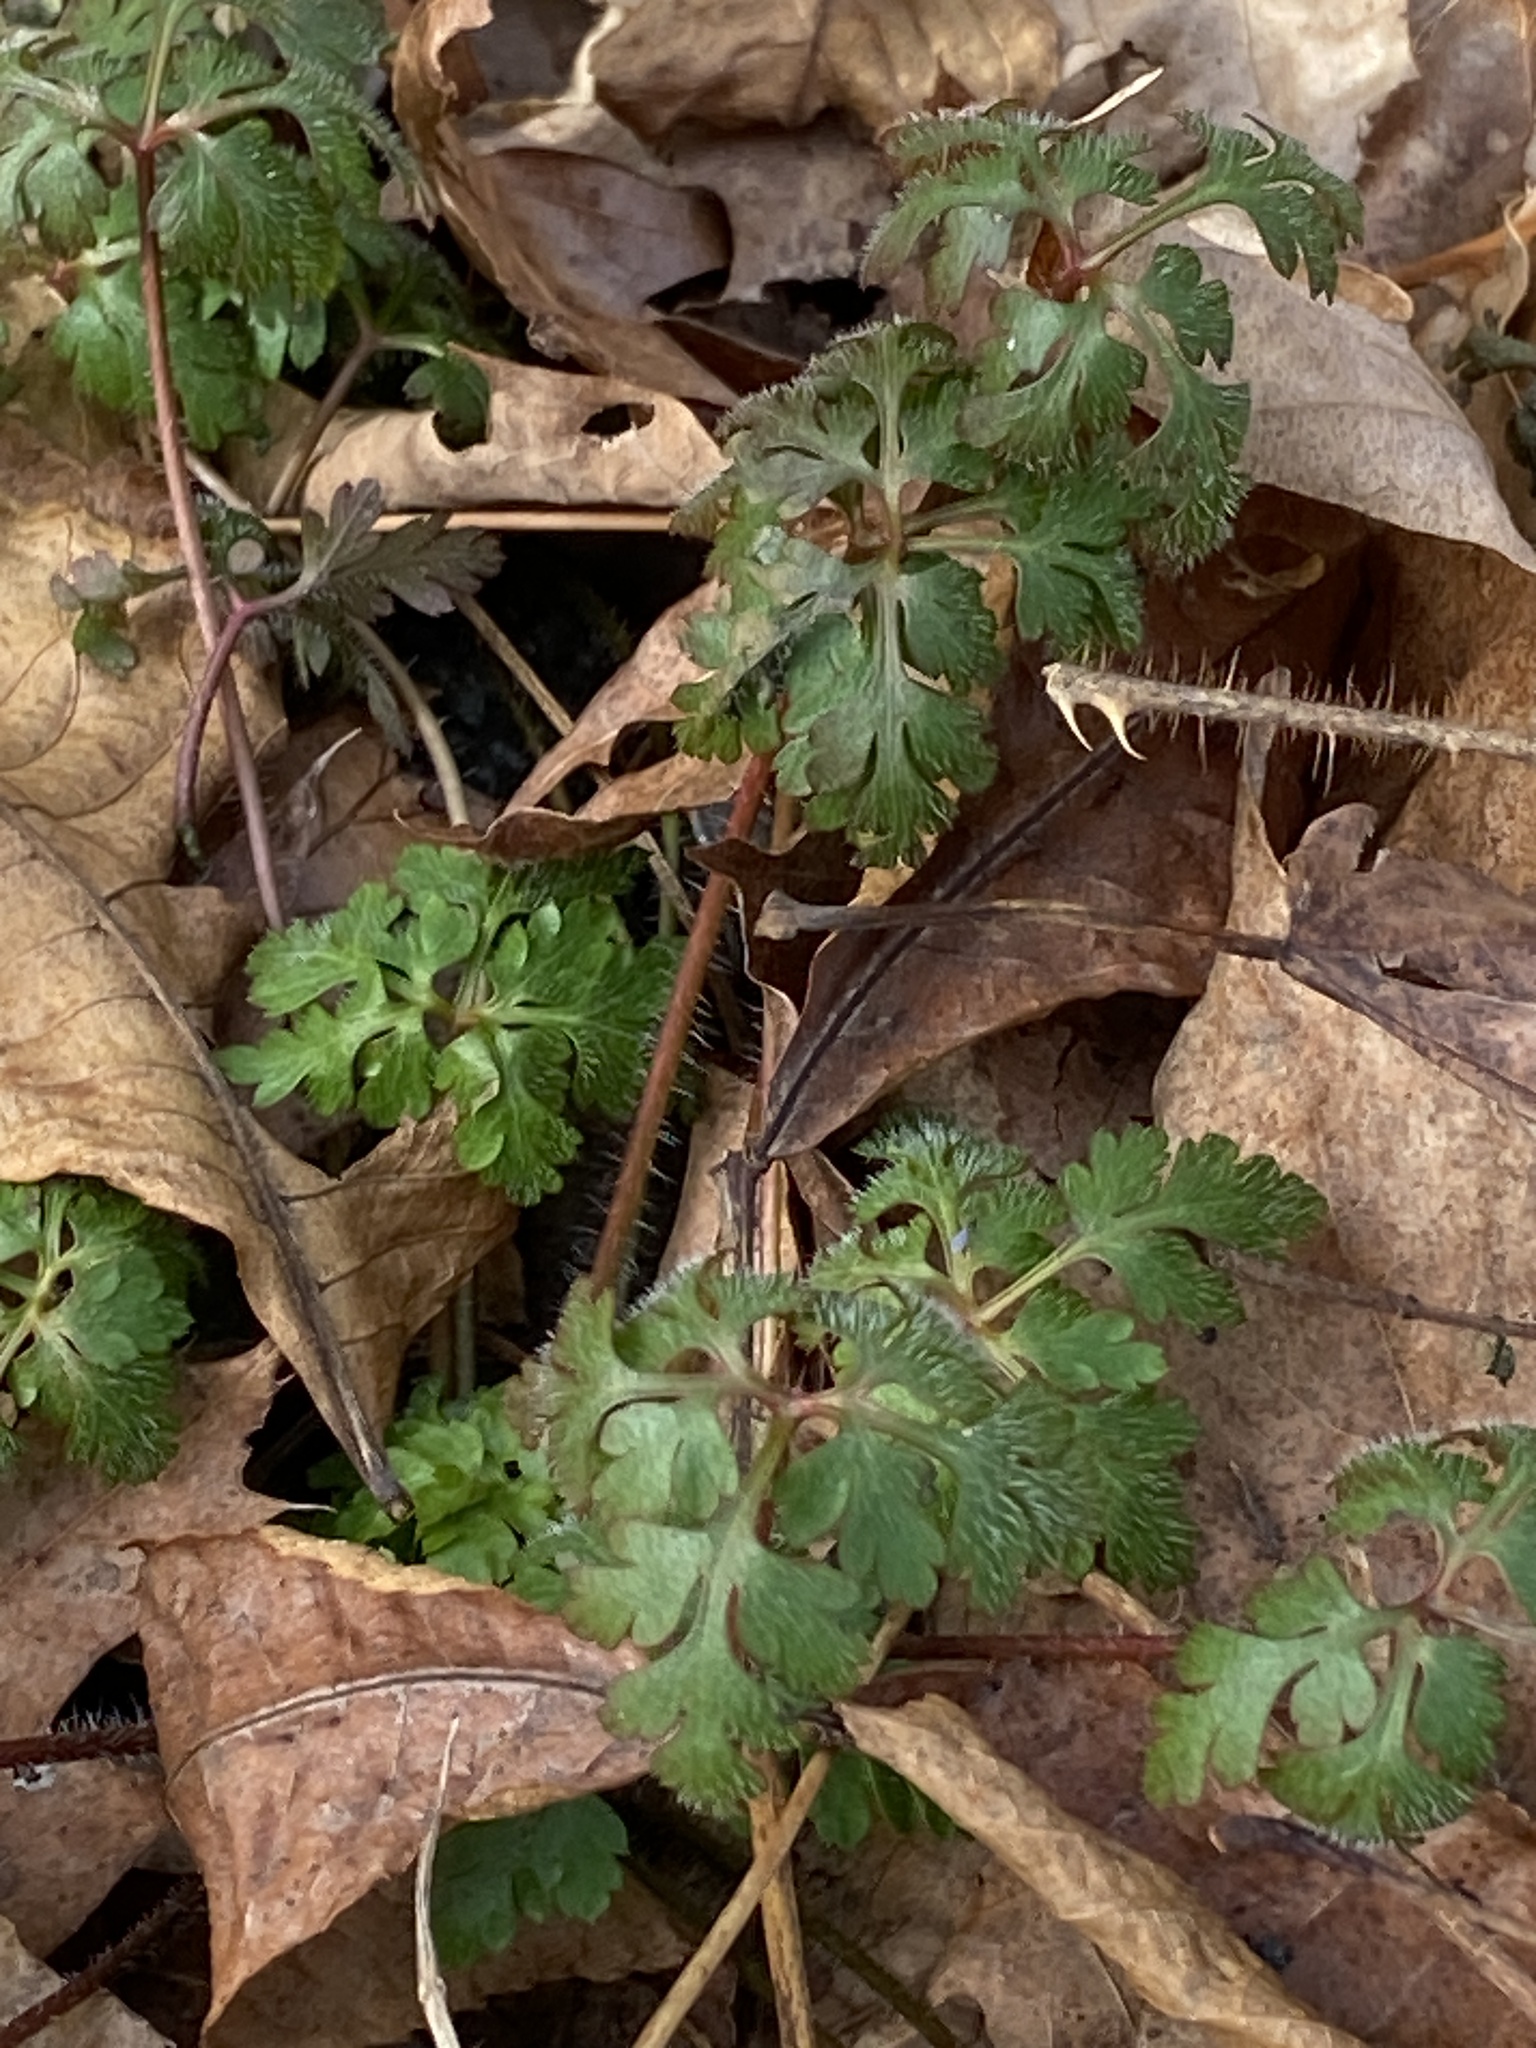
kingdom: Plantae
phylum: Tracheophyta
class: Magnoliopsida
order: Geraniales
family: Geraniaceae
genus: Geranium
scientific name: Geranium robertianum
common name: Herb-robert
